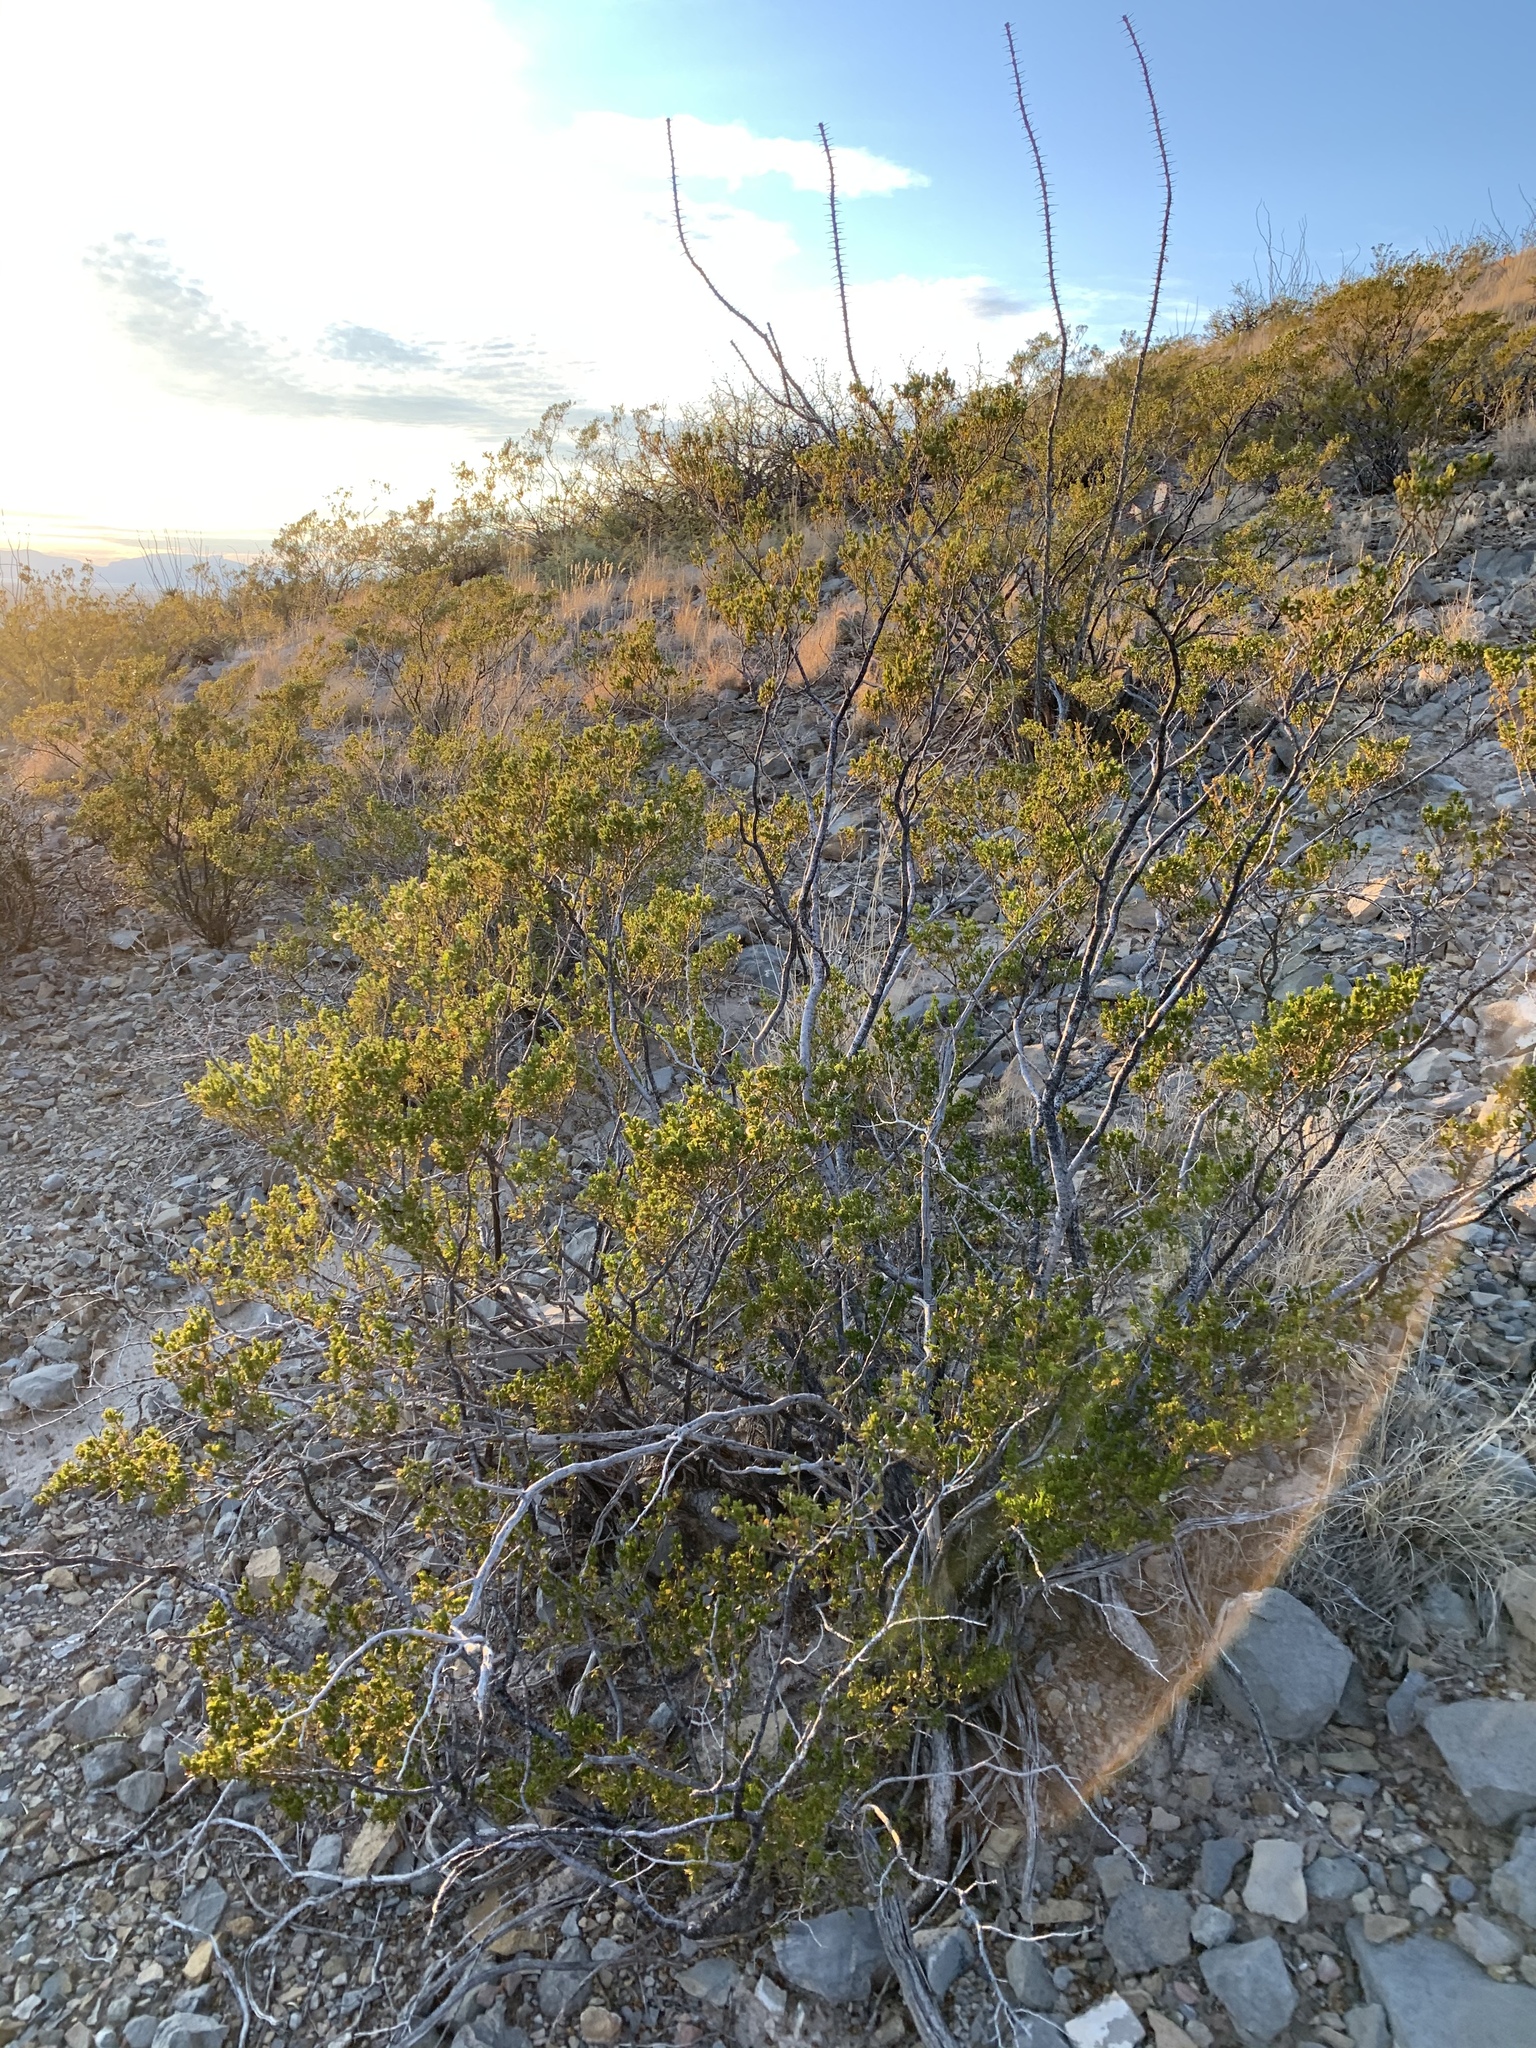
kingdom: Plantae
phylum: Tracheophyta
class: Magnoliopsida
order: Zygophyllales
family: Zygophyllaceae
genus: Larrea
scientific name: Larrea tridentata
